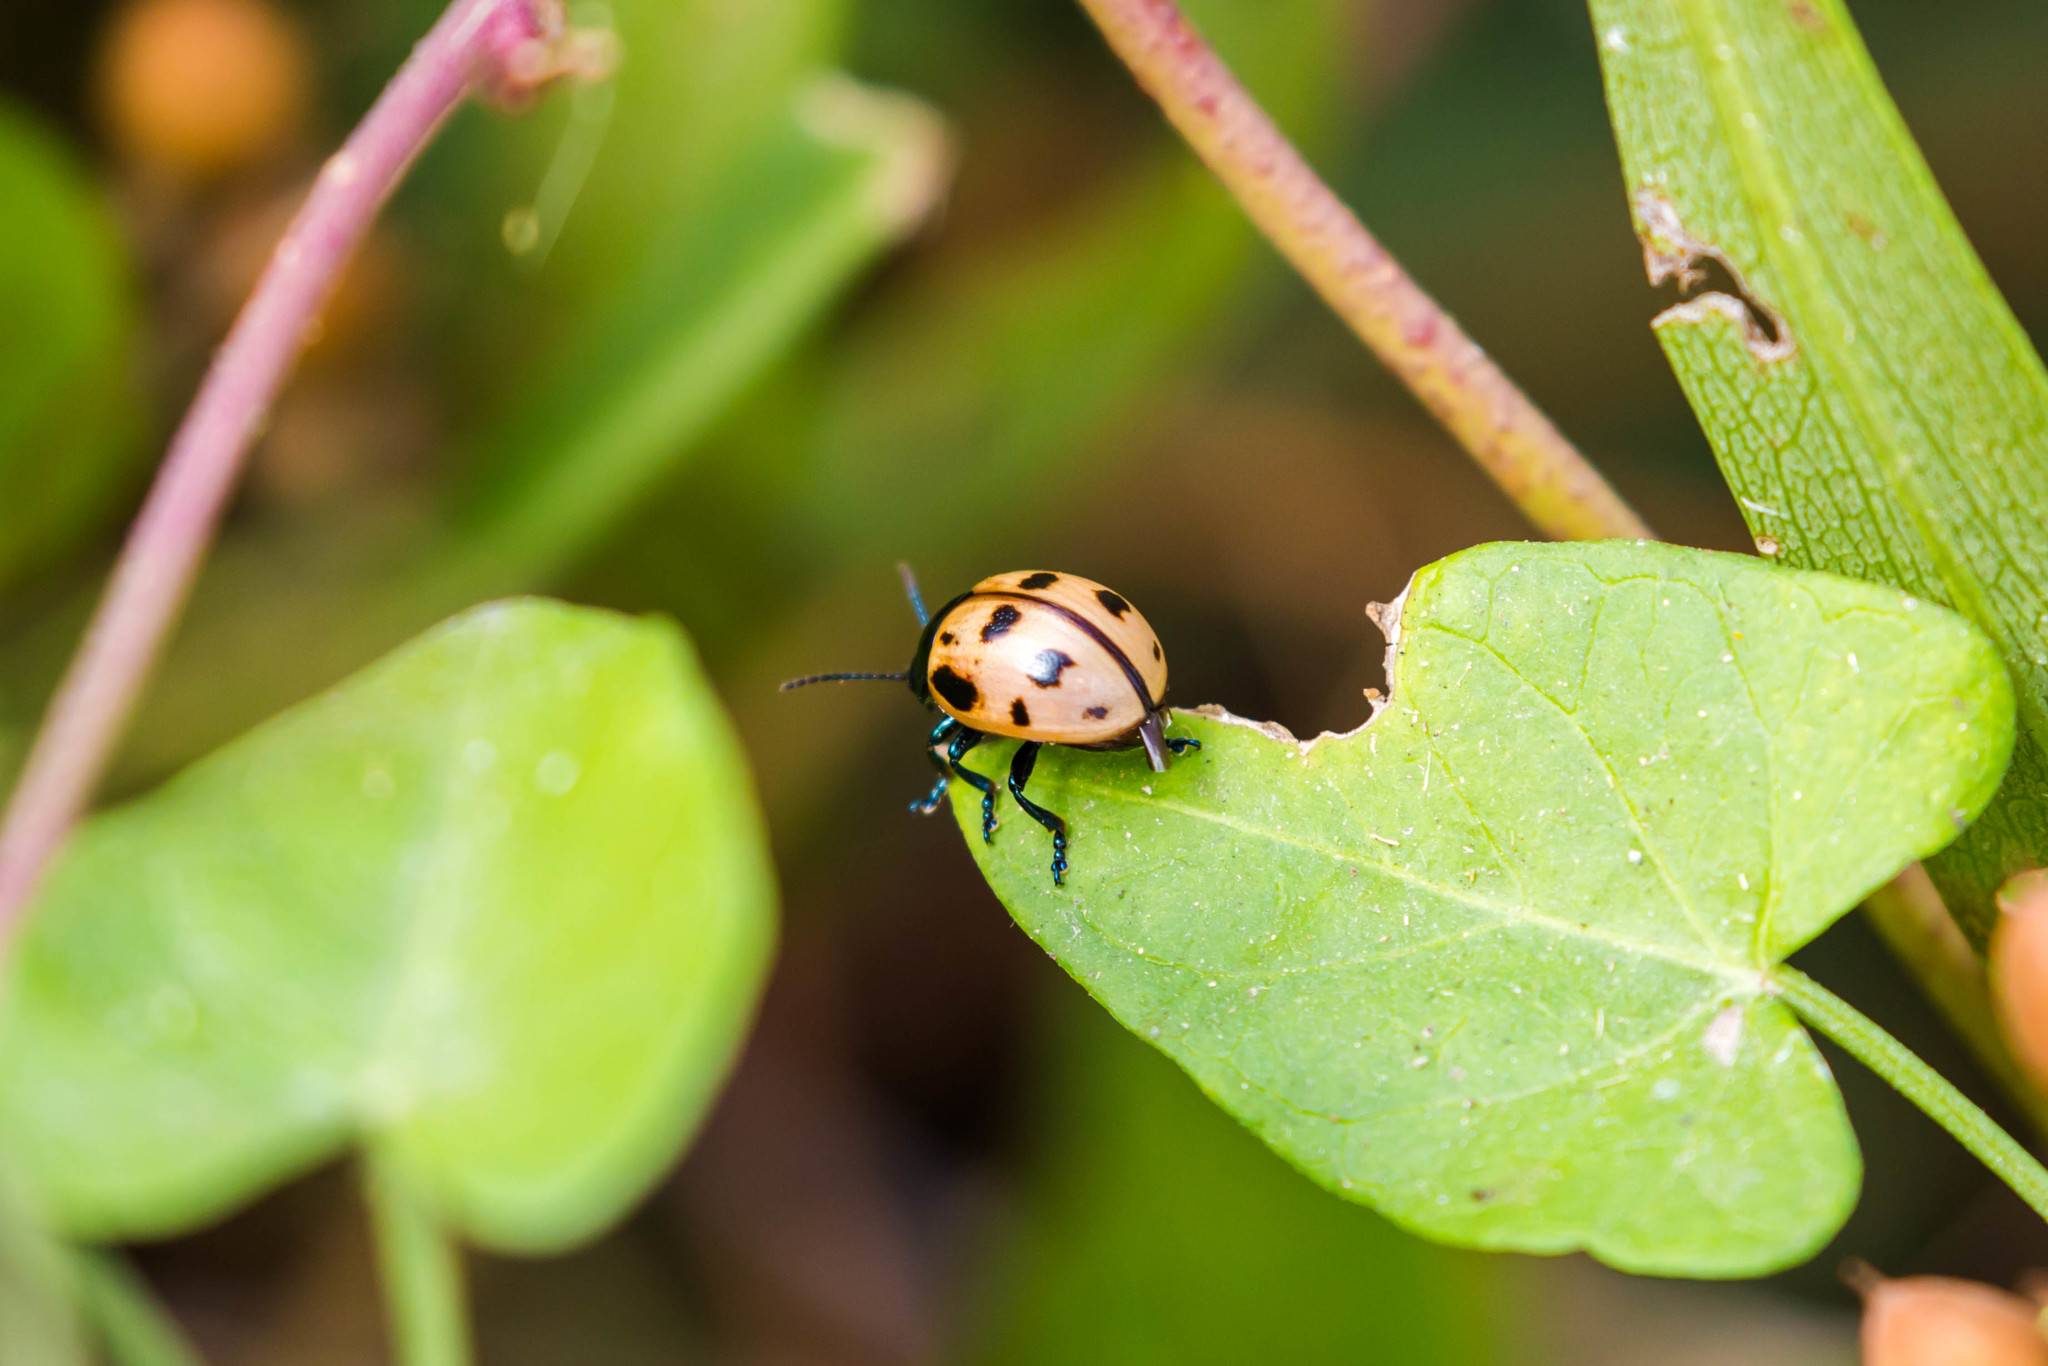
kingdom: Animalia
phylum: Arthropoda
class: Insecta
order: Coleoptera
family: Chrysomelidae
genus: Labidomera
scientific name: Labidomera clivicollis
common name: Swamp milkweed leaf beetle
